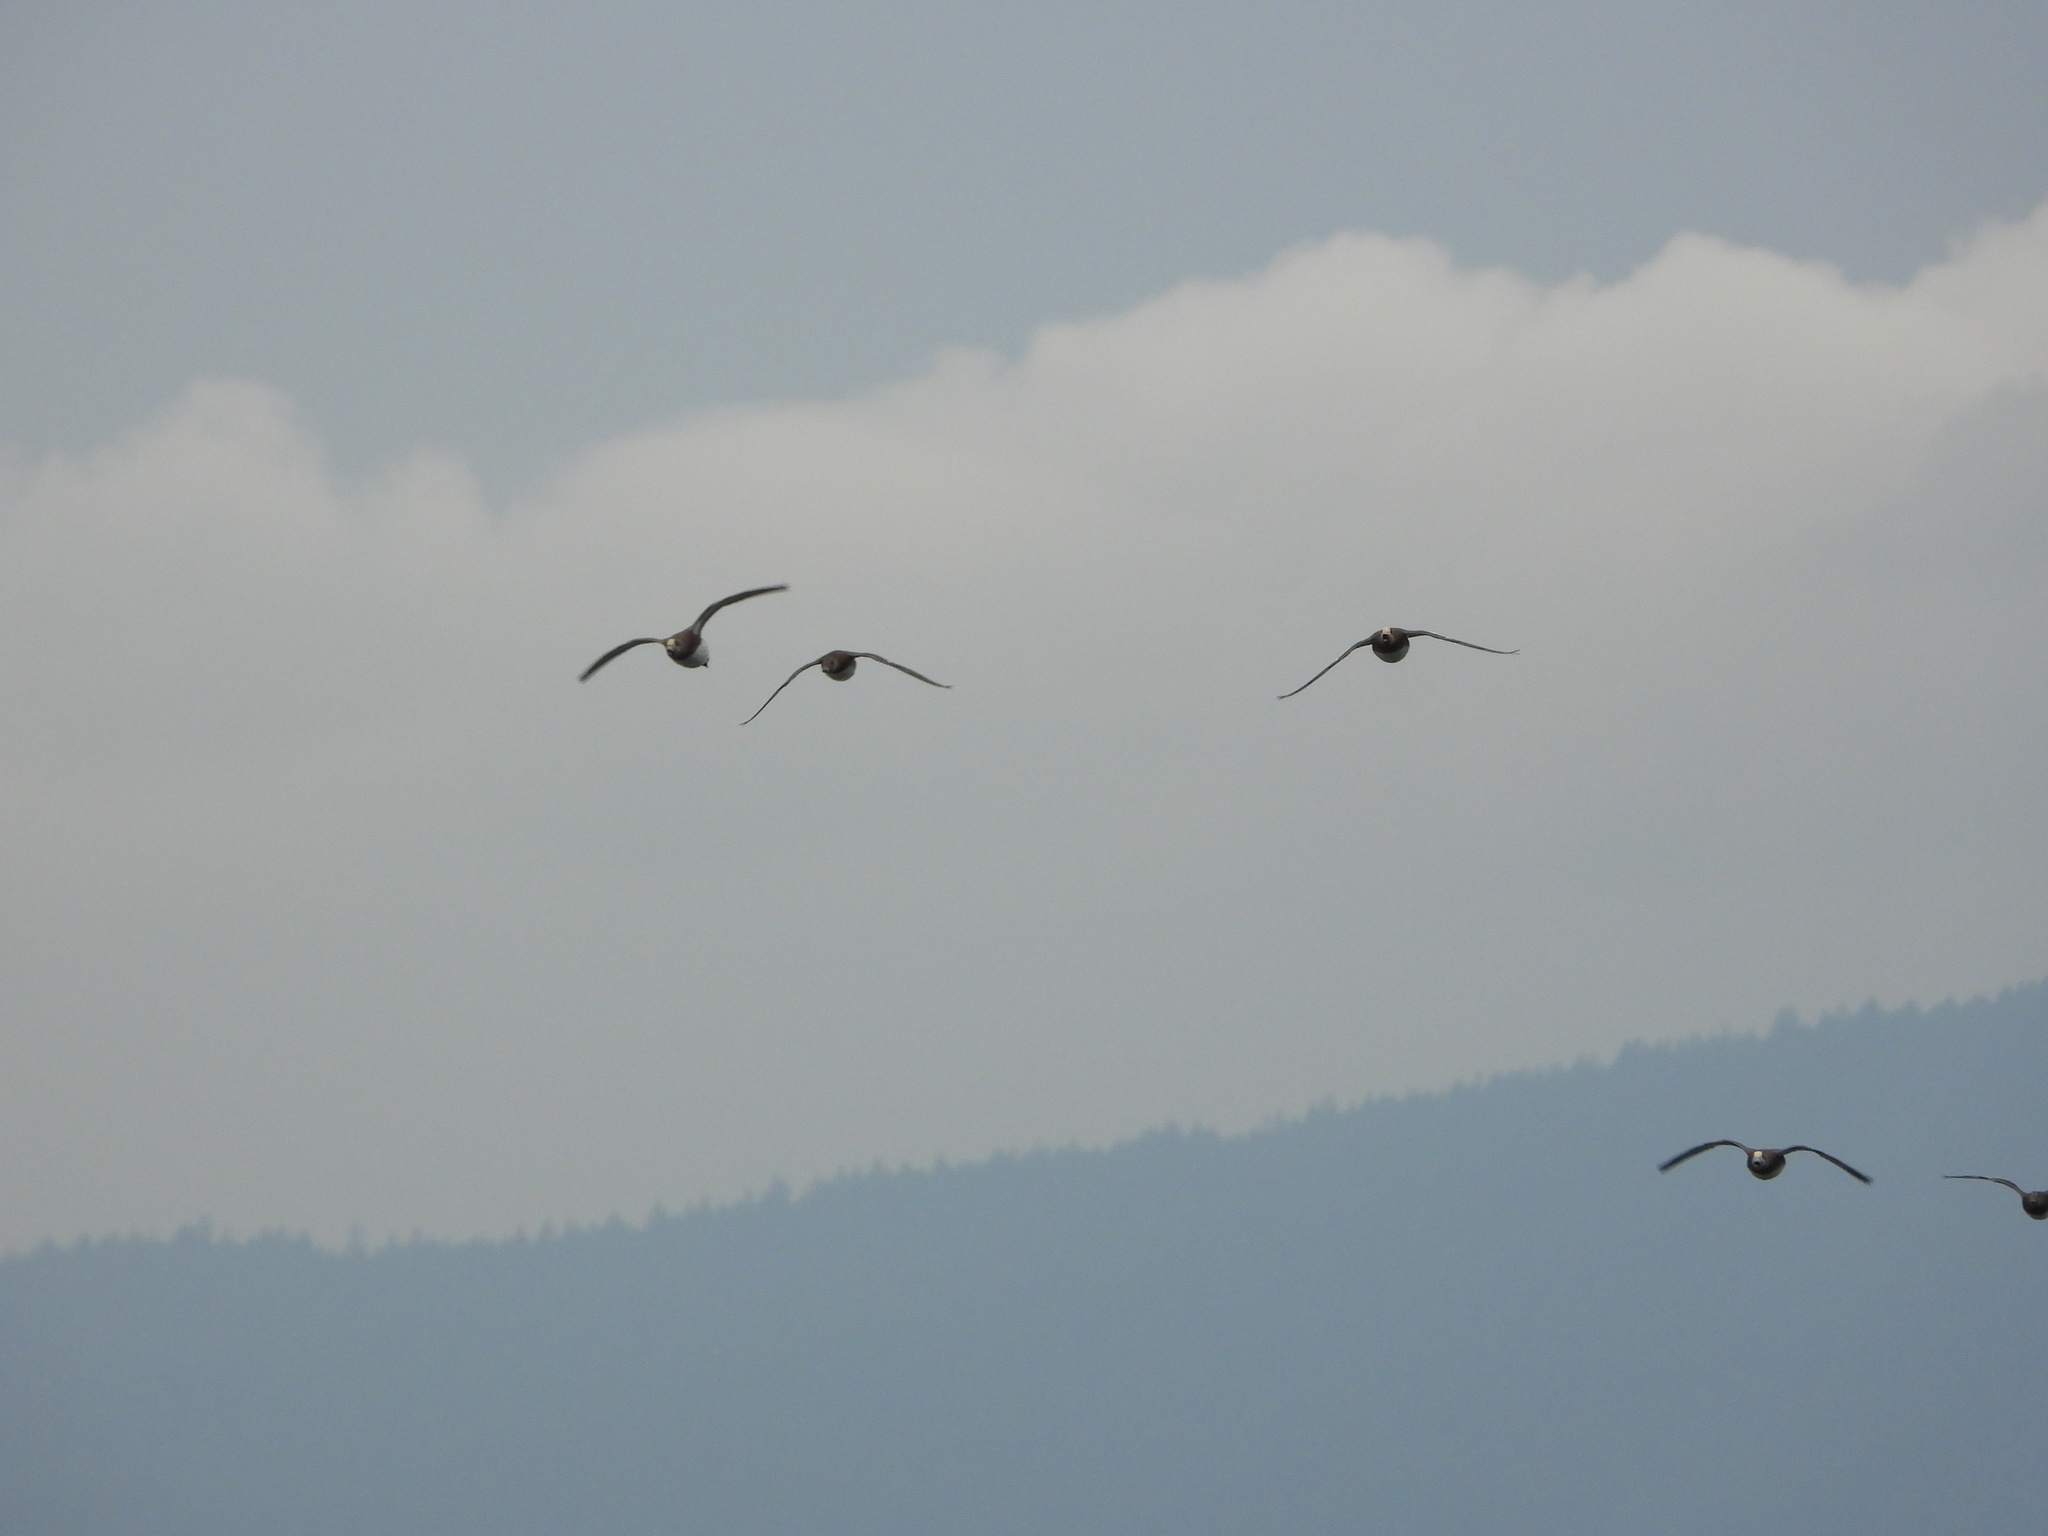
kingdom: Animalia
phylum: Chordata
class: Aves
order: Anseriformes
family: Anatidae
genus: Mareca
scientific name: Mareca americana
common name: American wigeon
